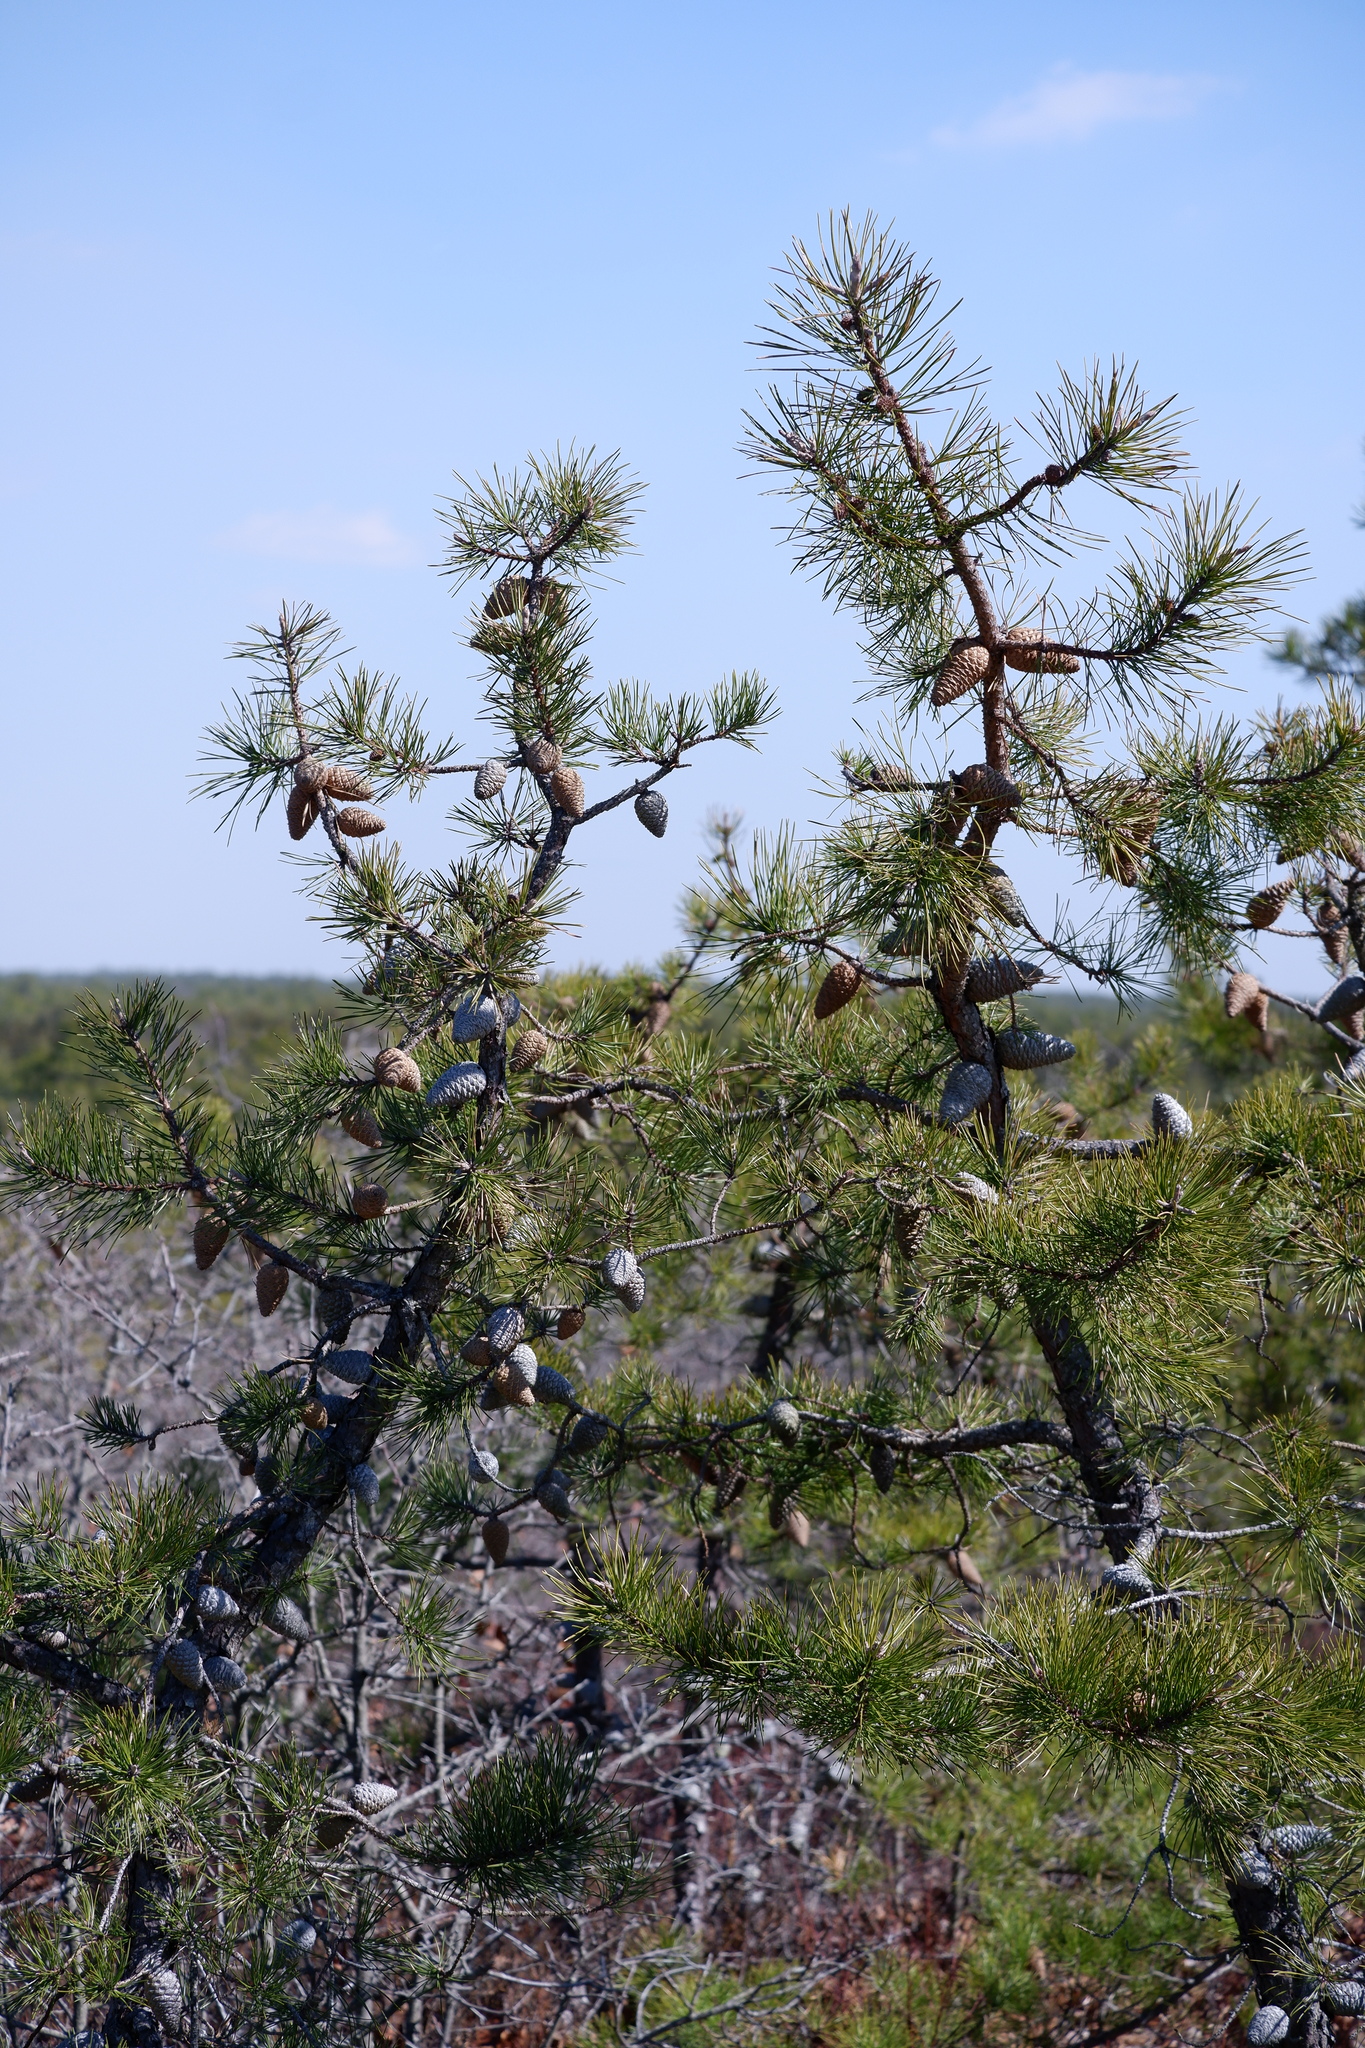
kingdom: Plantae
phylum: Tracheophyta
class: Pinopsida
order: Pinales
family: Pinaceae
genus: Pinus
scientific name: Pinus rigida
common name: Pitch pine
